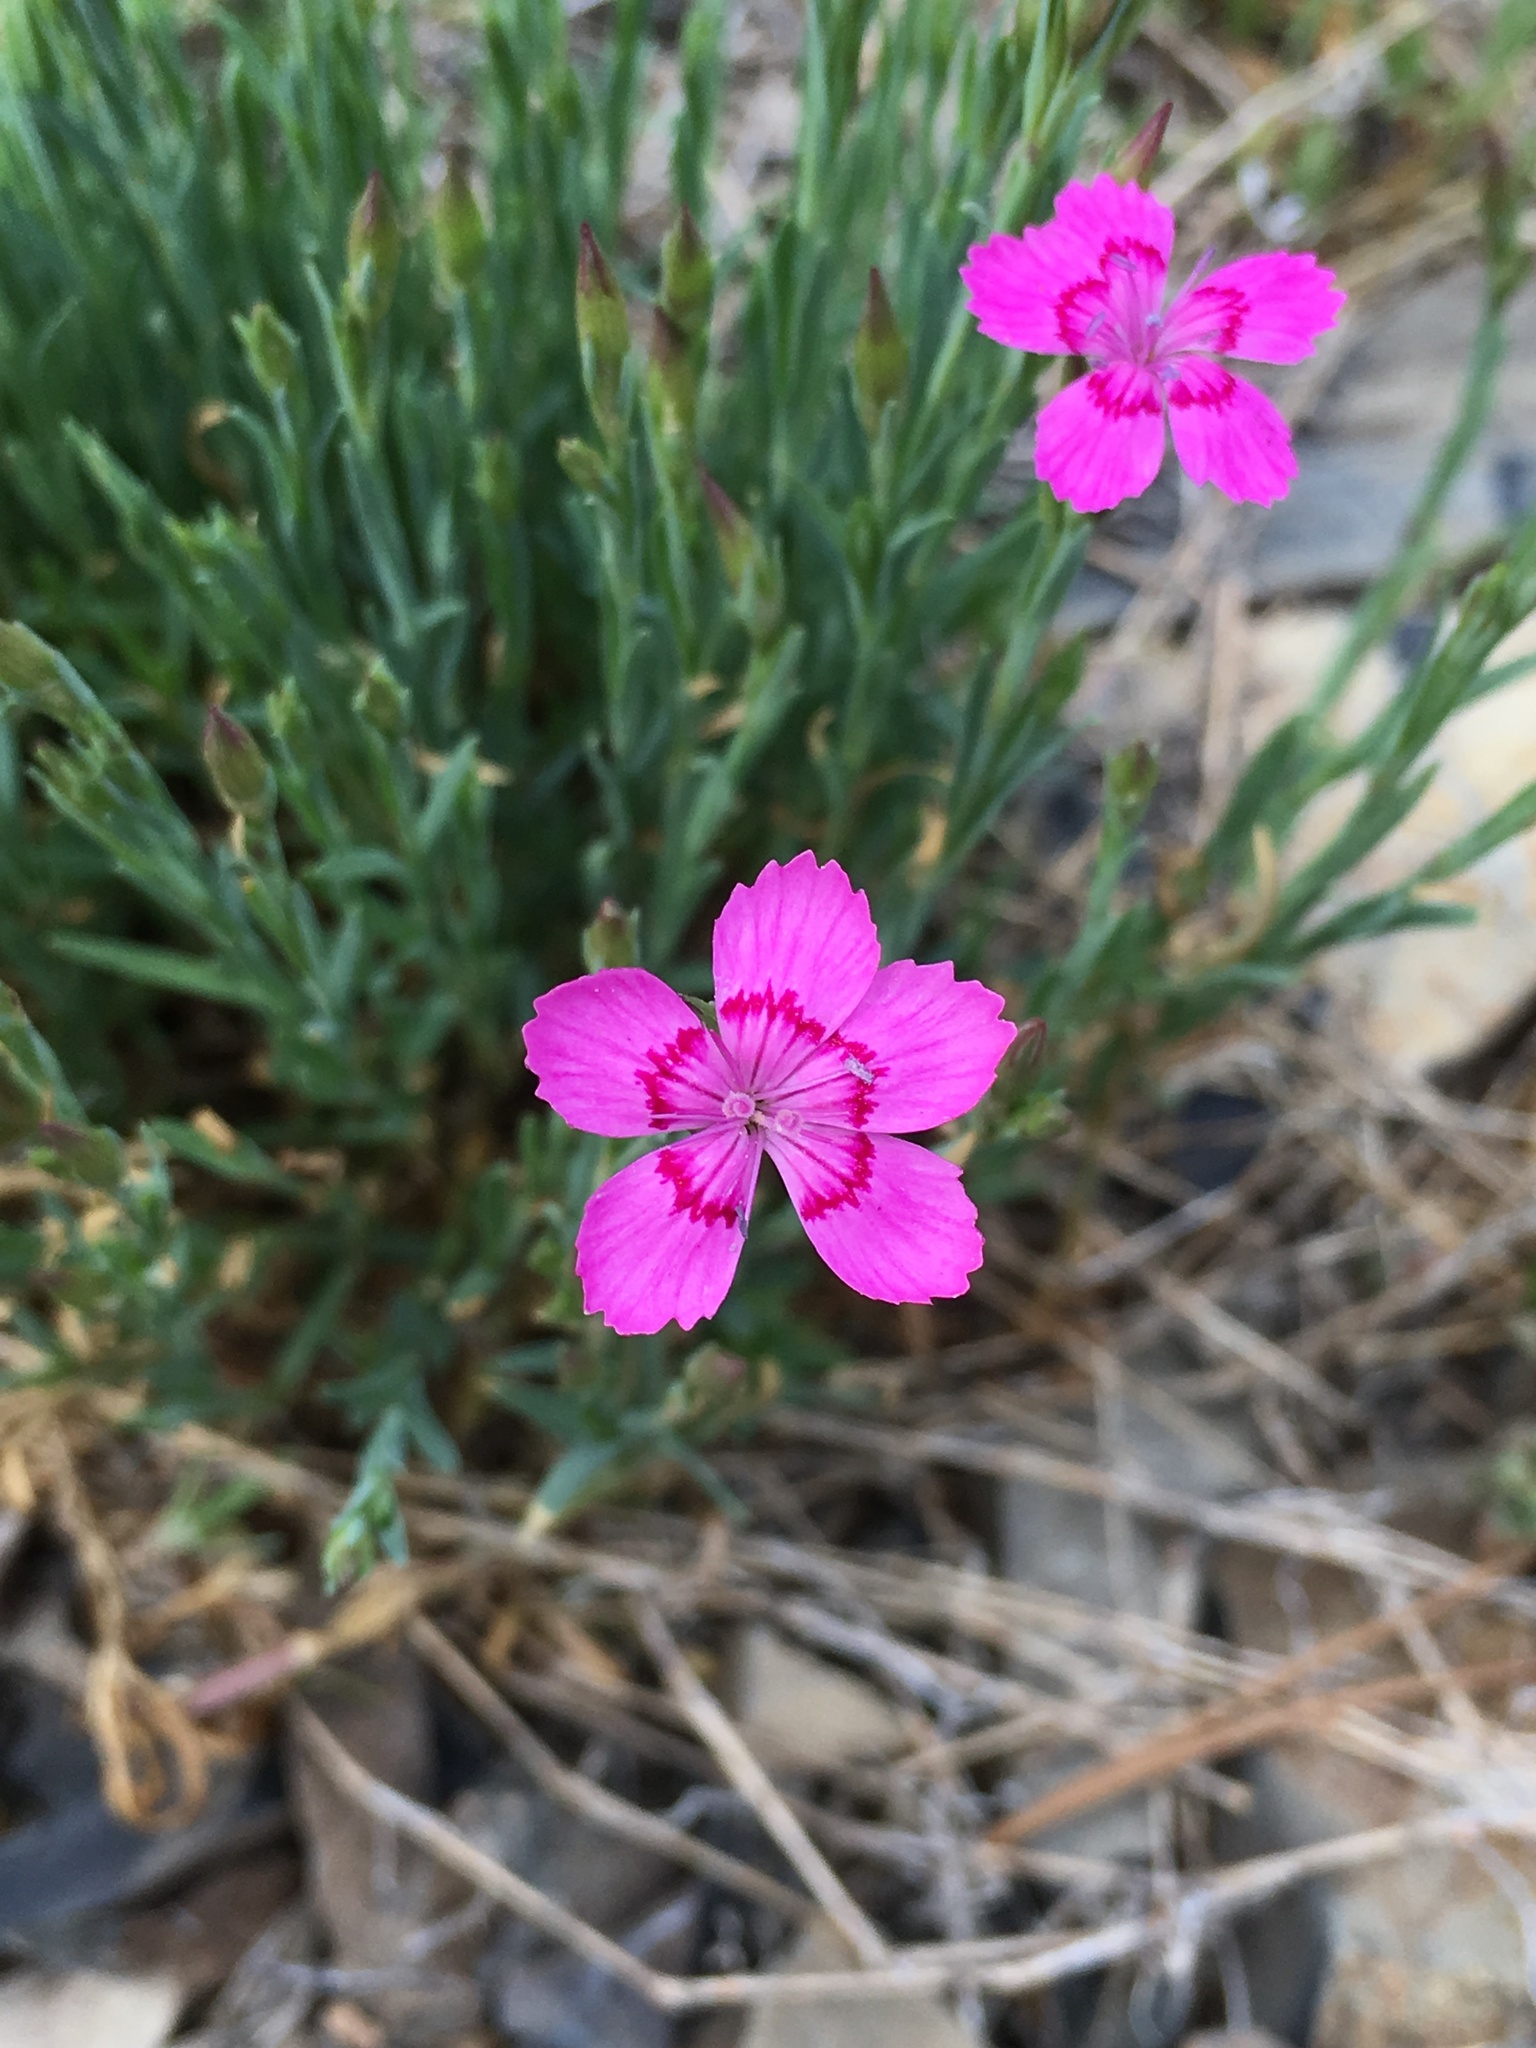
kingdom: Plantae
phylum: Tracheophyta
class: Magnoliopsida
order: Caryophyllales
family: Caryophyllaceae
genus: Dianthus
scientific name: Dianthus deltoides
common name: Maiden pink
